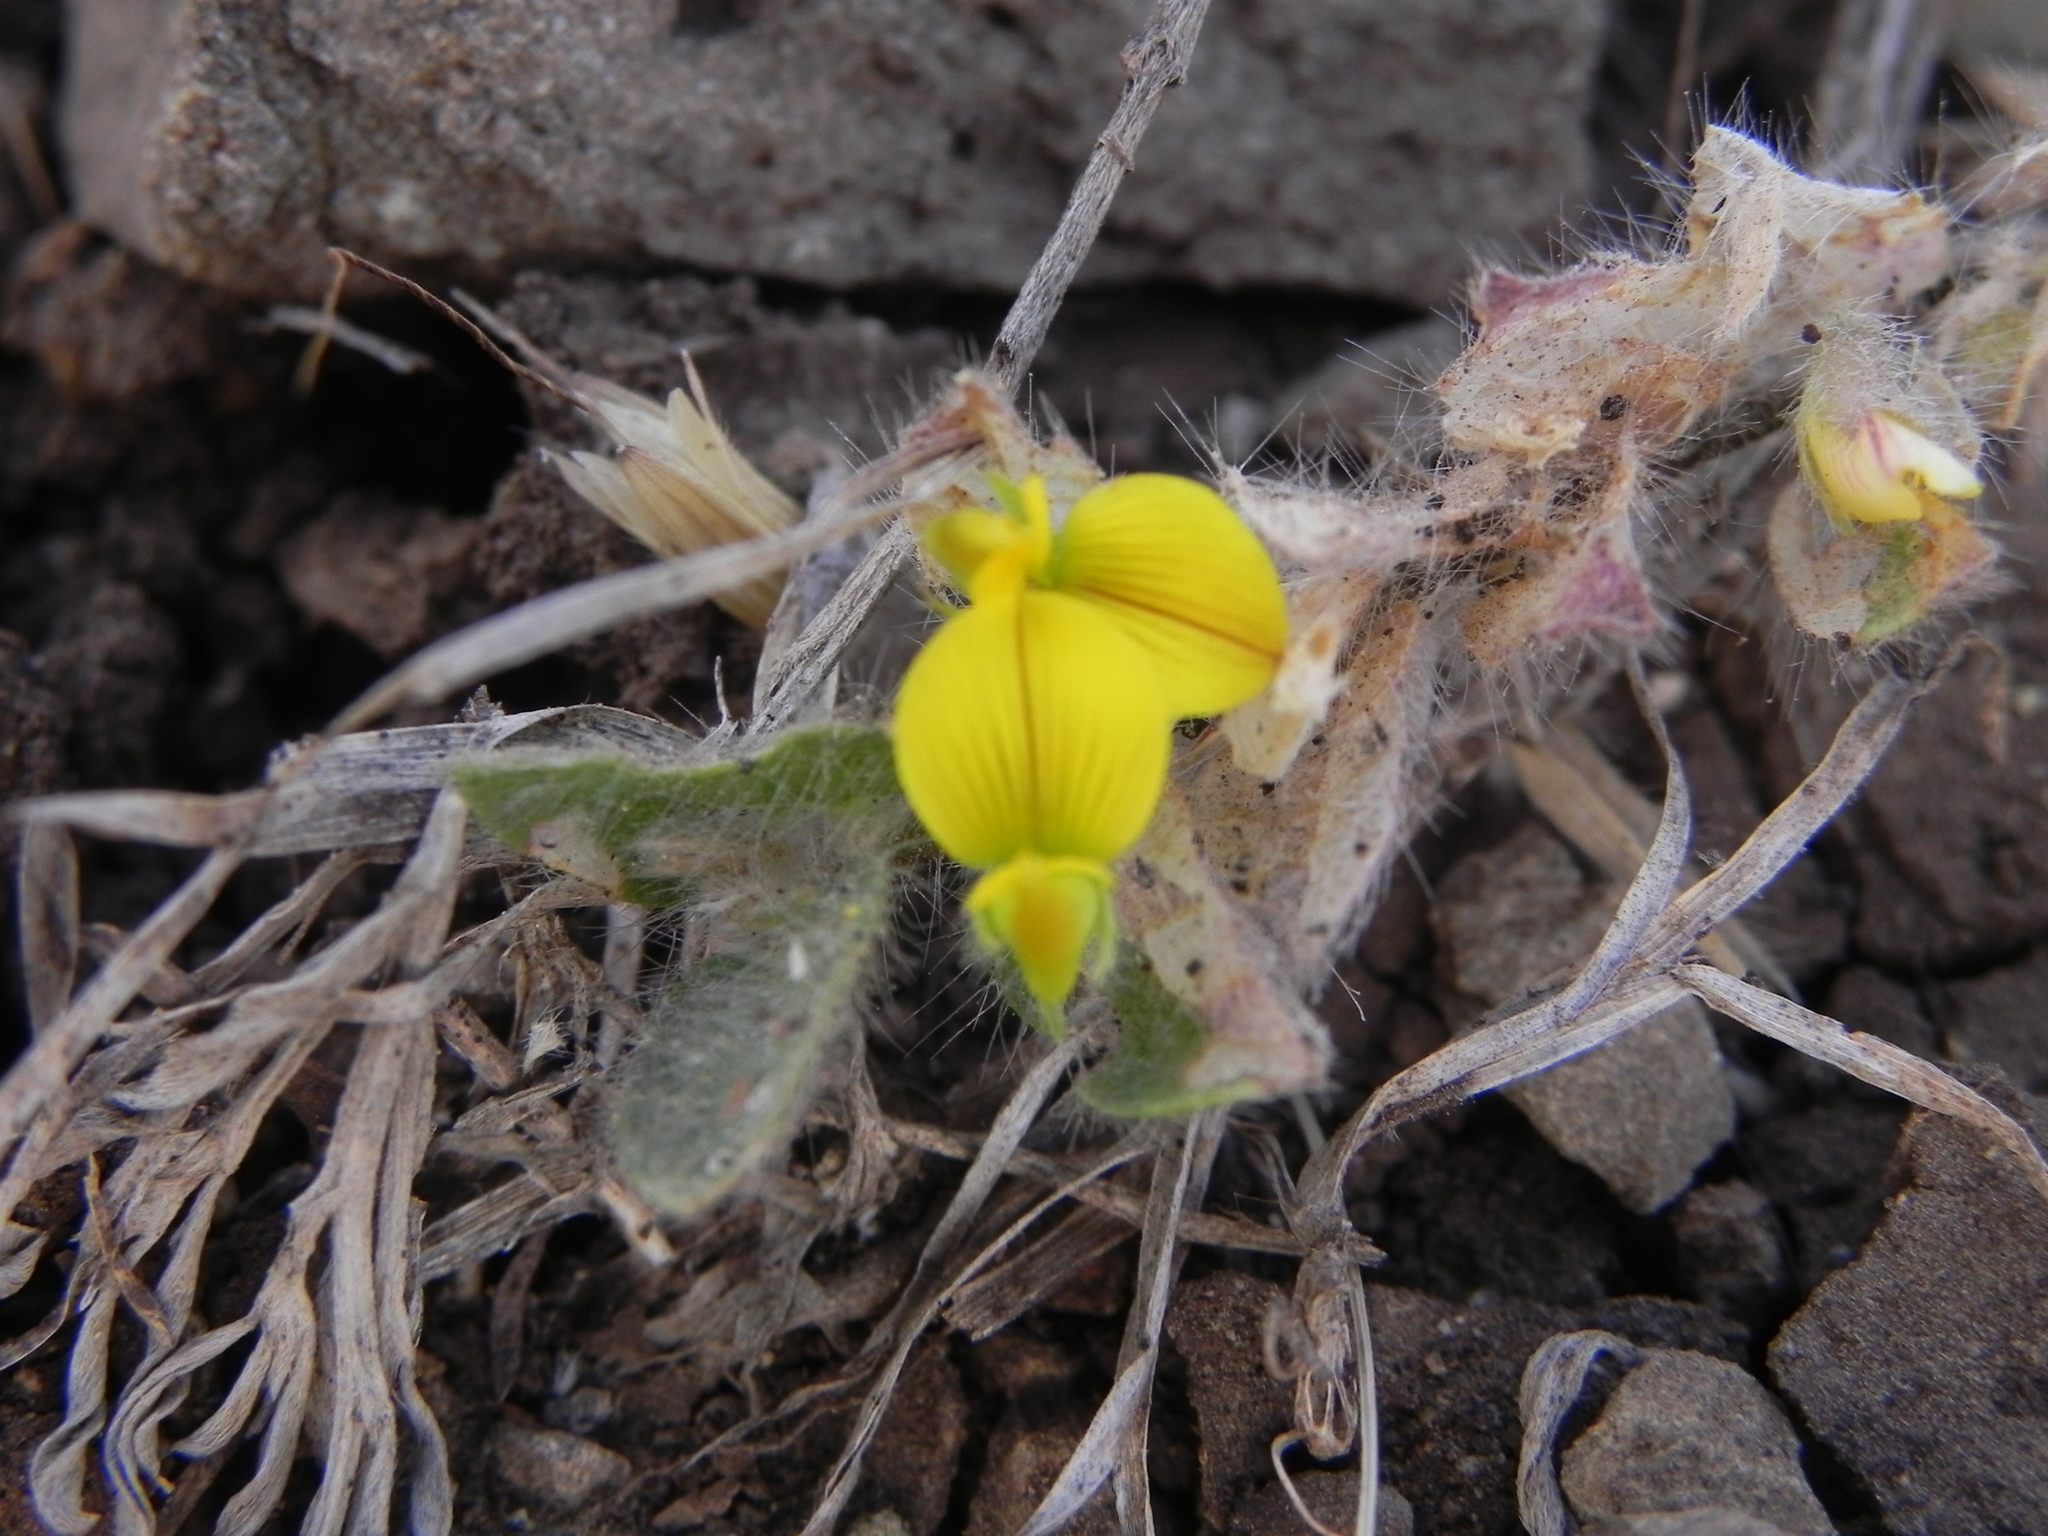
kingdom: Plantae
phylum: Tracheophyta
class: Magnoliopsida
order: Fabales
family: Fabaceae
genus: Crotalaria
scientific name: Crotalaria hebecarpa
